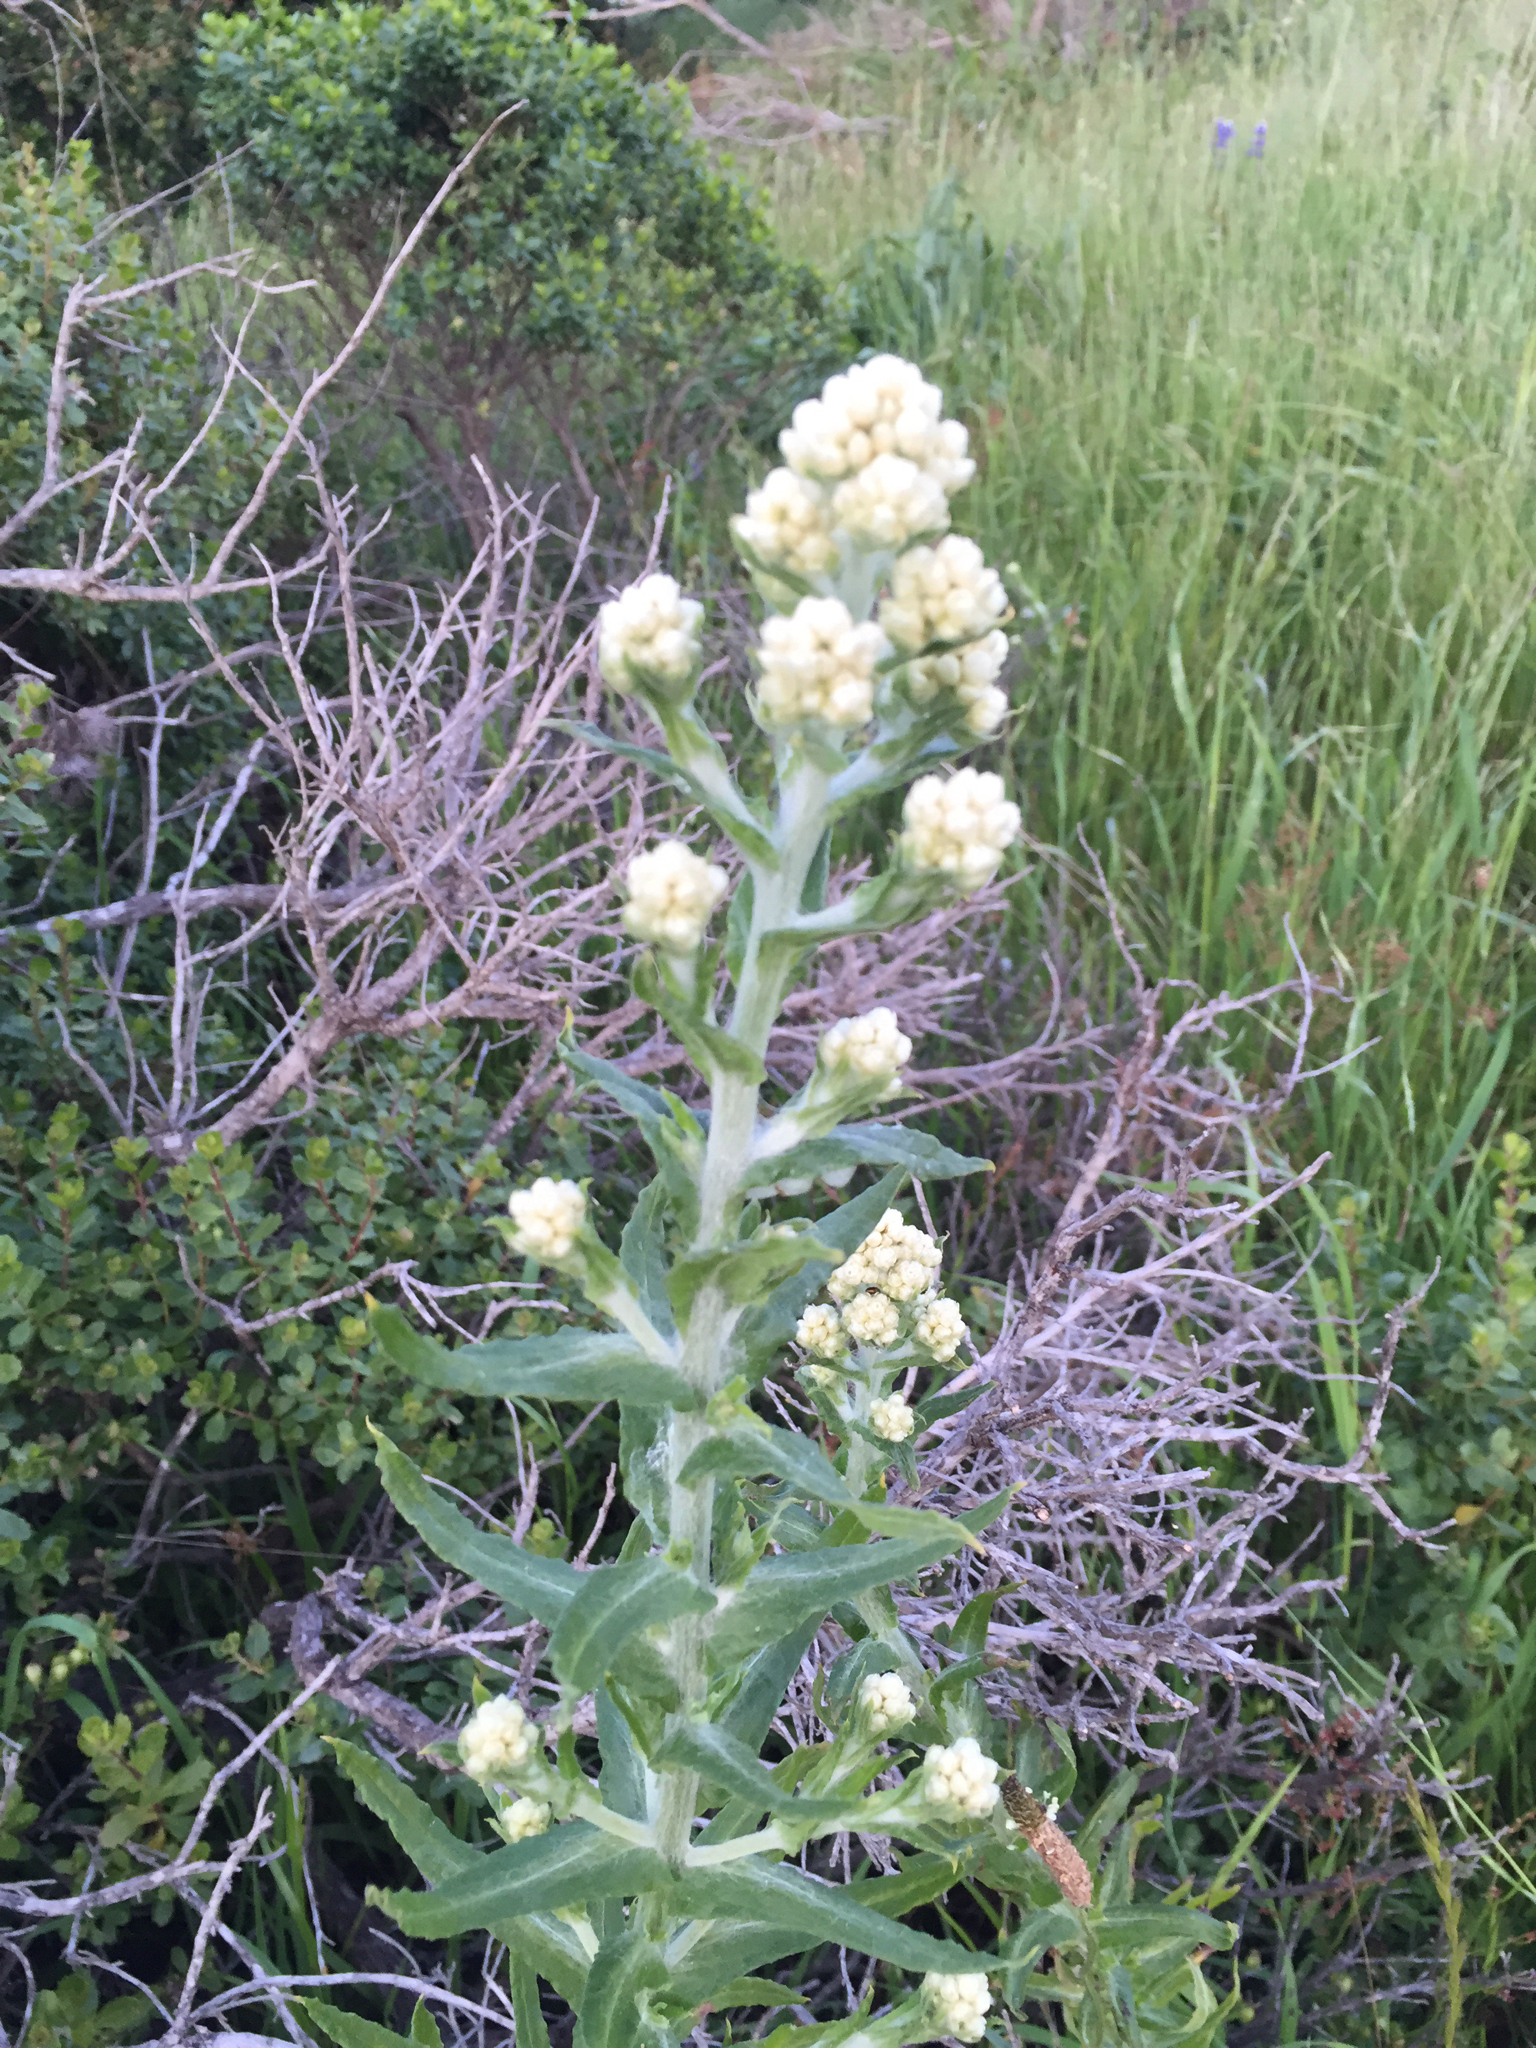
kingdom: Plantae
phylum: Tracheophyta
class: Magnoliopsida
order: Asterales
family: Asteraceae
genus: Pseudognaphalium
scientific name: Pseudognaphalium californicum
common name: California rabbit-tobacco
